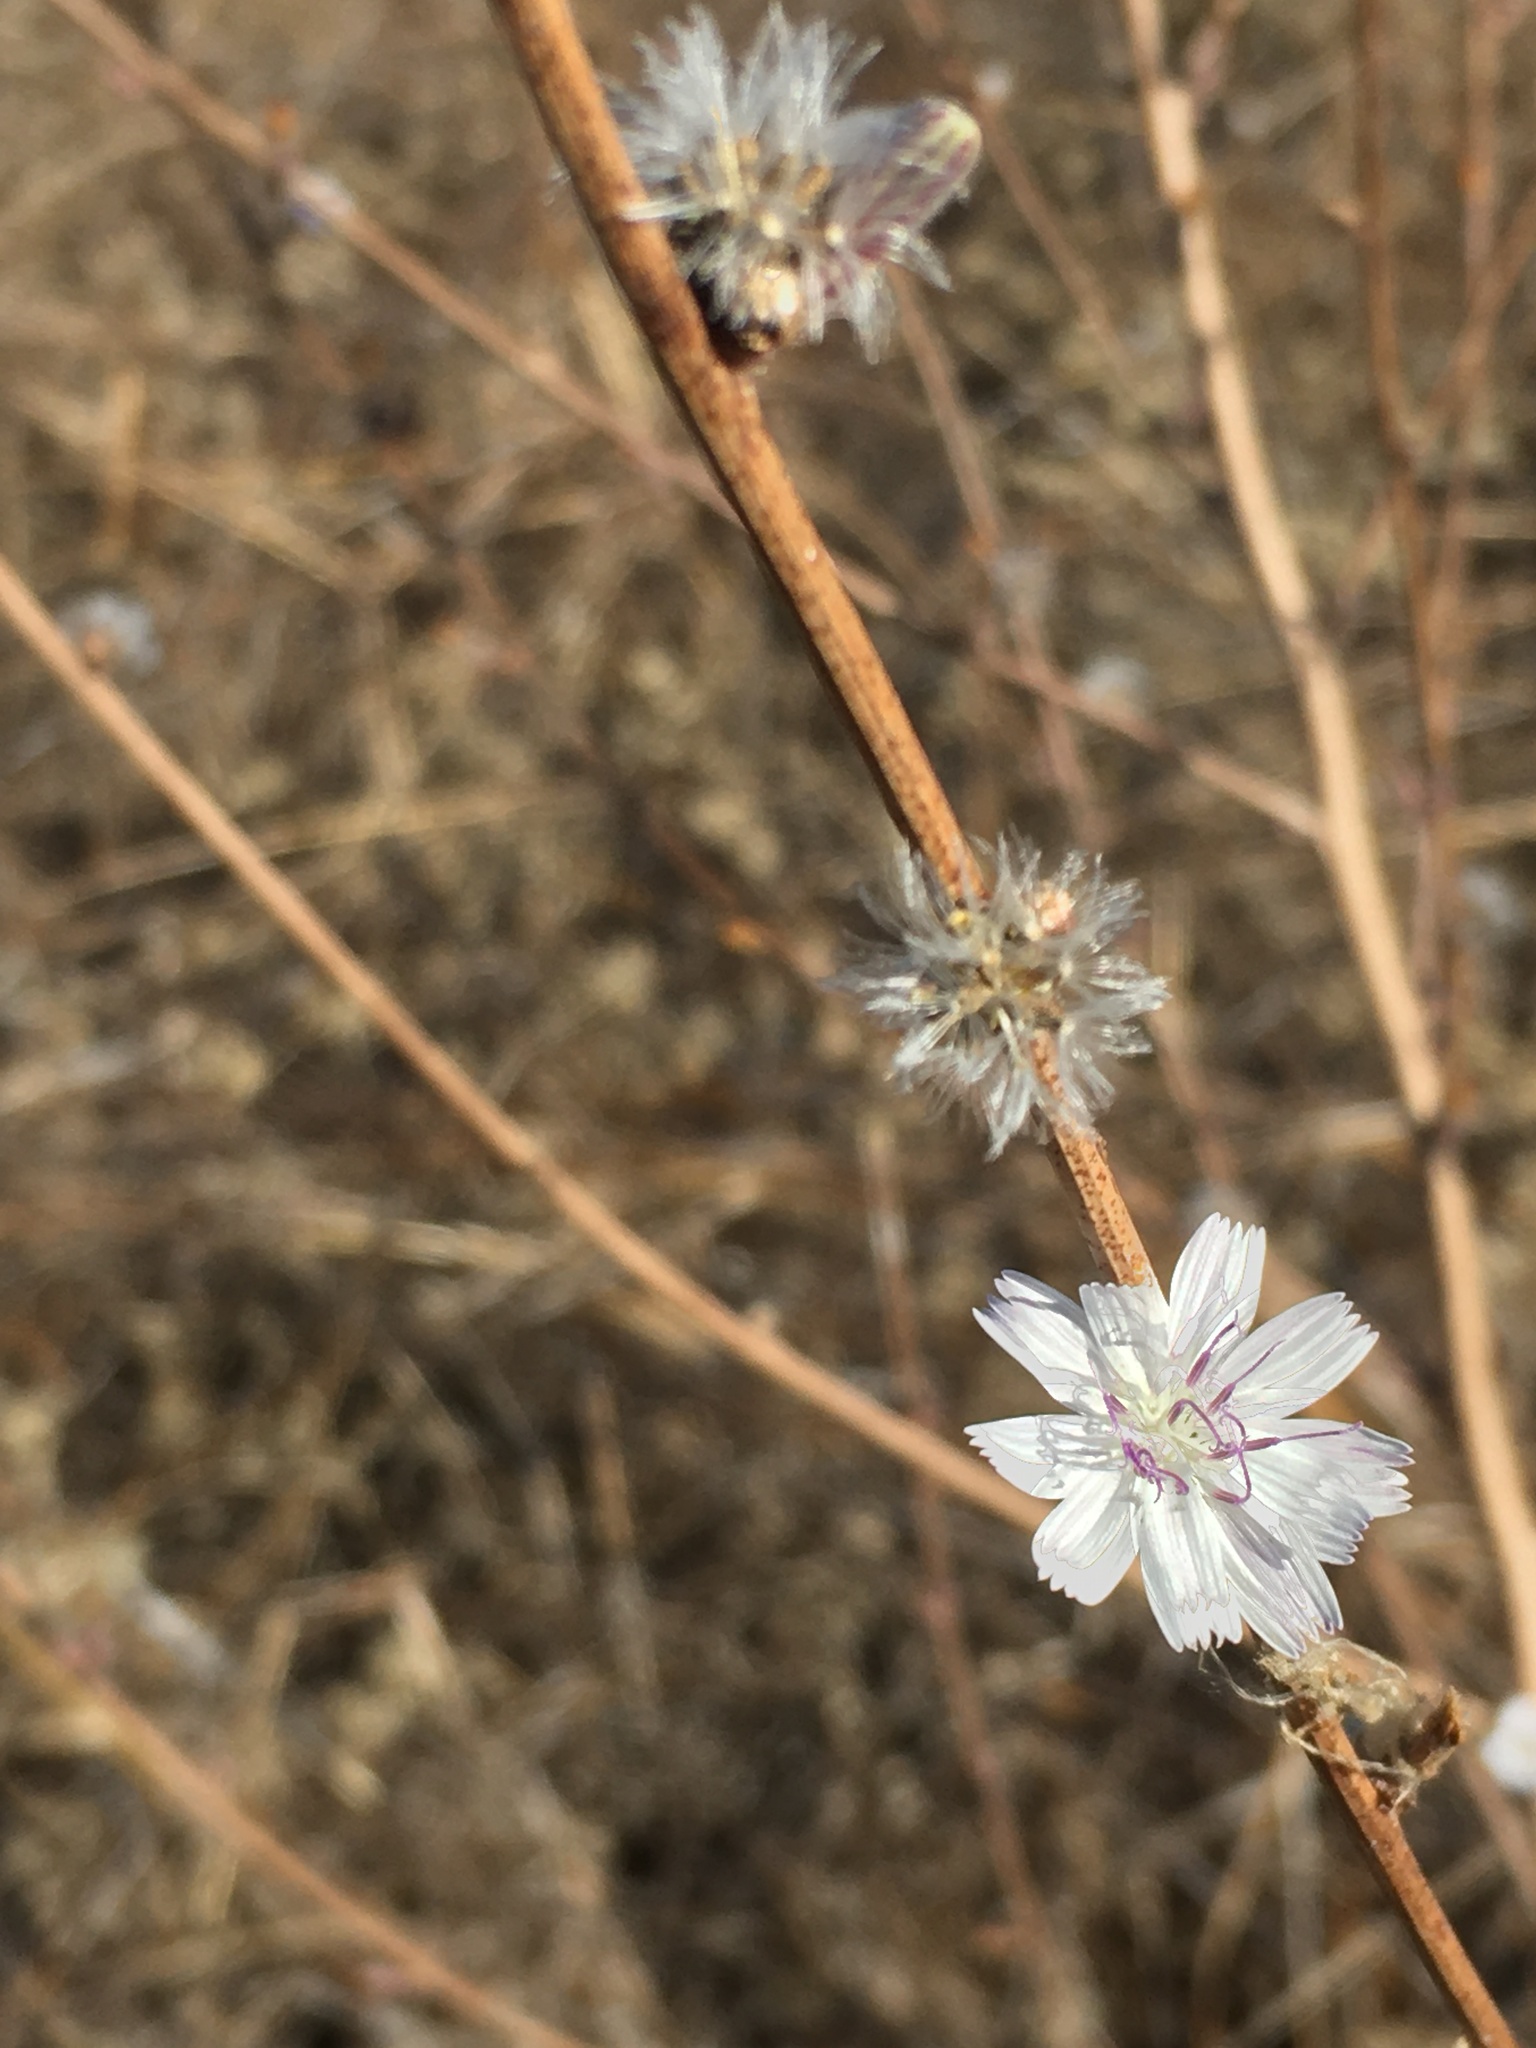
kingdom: Plantae
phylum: Tracheophyta
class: Magnoliopsida
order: Asterales
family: Asteraceae
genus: Stephanomeria
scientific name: Stephanomeria diegensis
